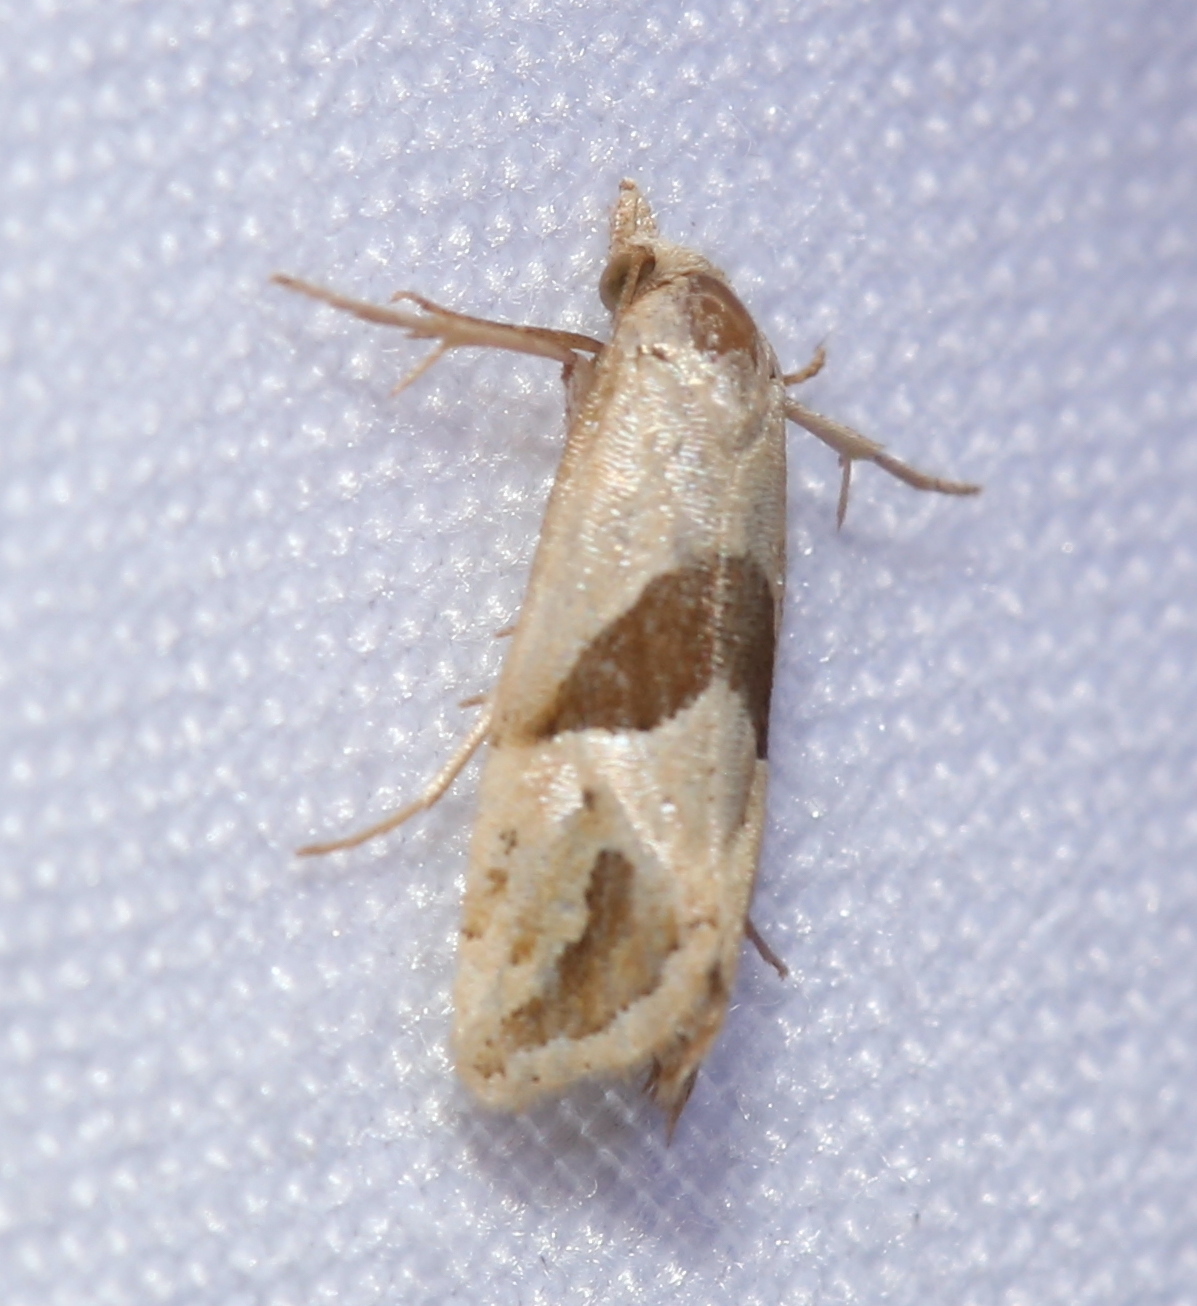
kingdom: Animalia
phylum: Arthropoda
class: Insecta
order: Lepidoptera
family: Tortricidae
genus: Eugnosta
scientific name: Eugnosta sartana
